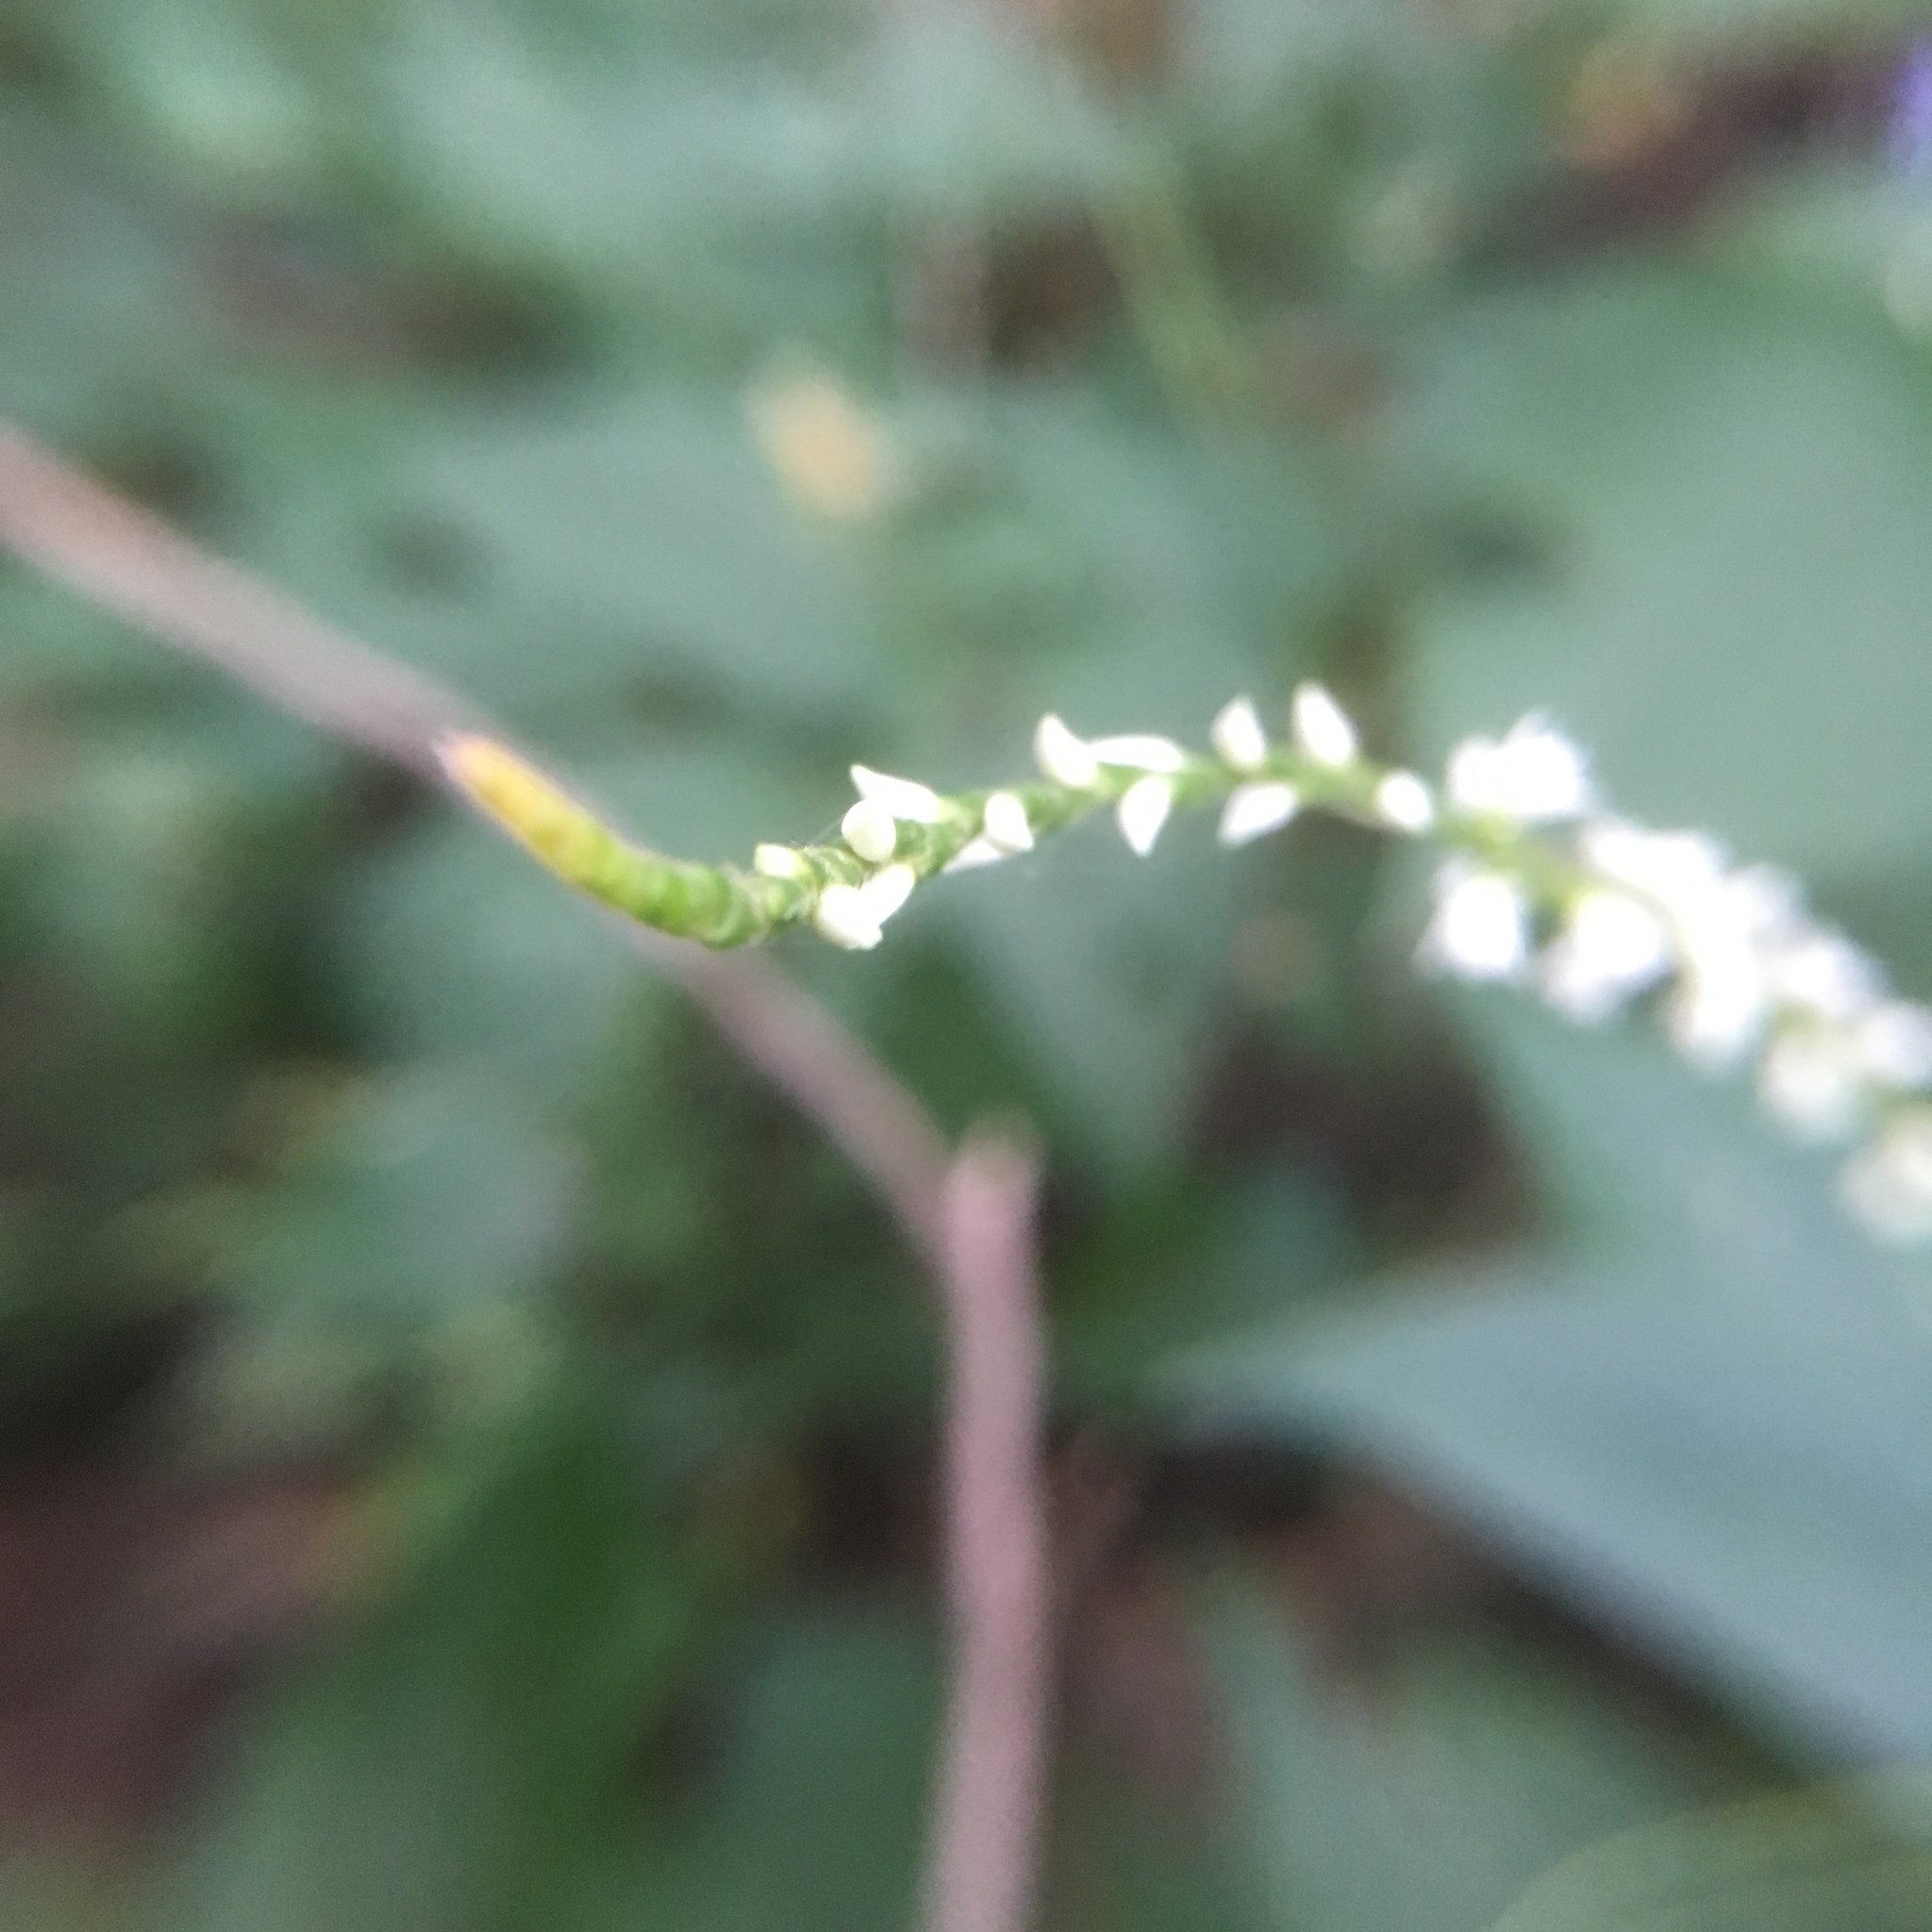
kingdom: Plantae
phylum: Tracheophyta
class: Magnoliopsida
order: Caryophyllales
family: Polygonaceae
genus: Persicaria
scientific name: Persicaria virginiana
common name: Jumpseed
